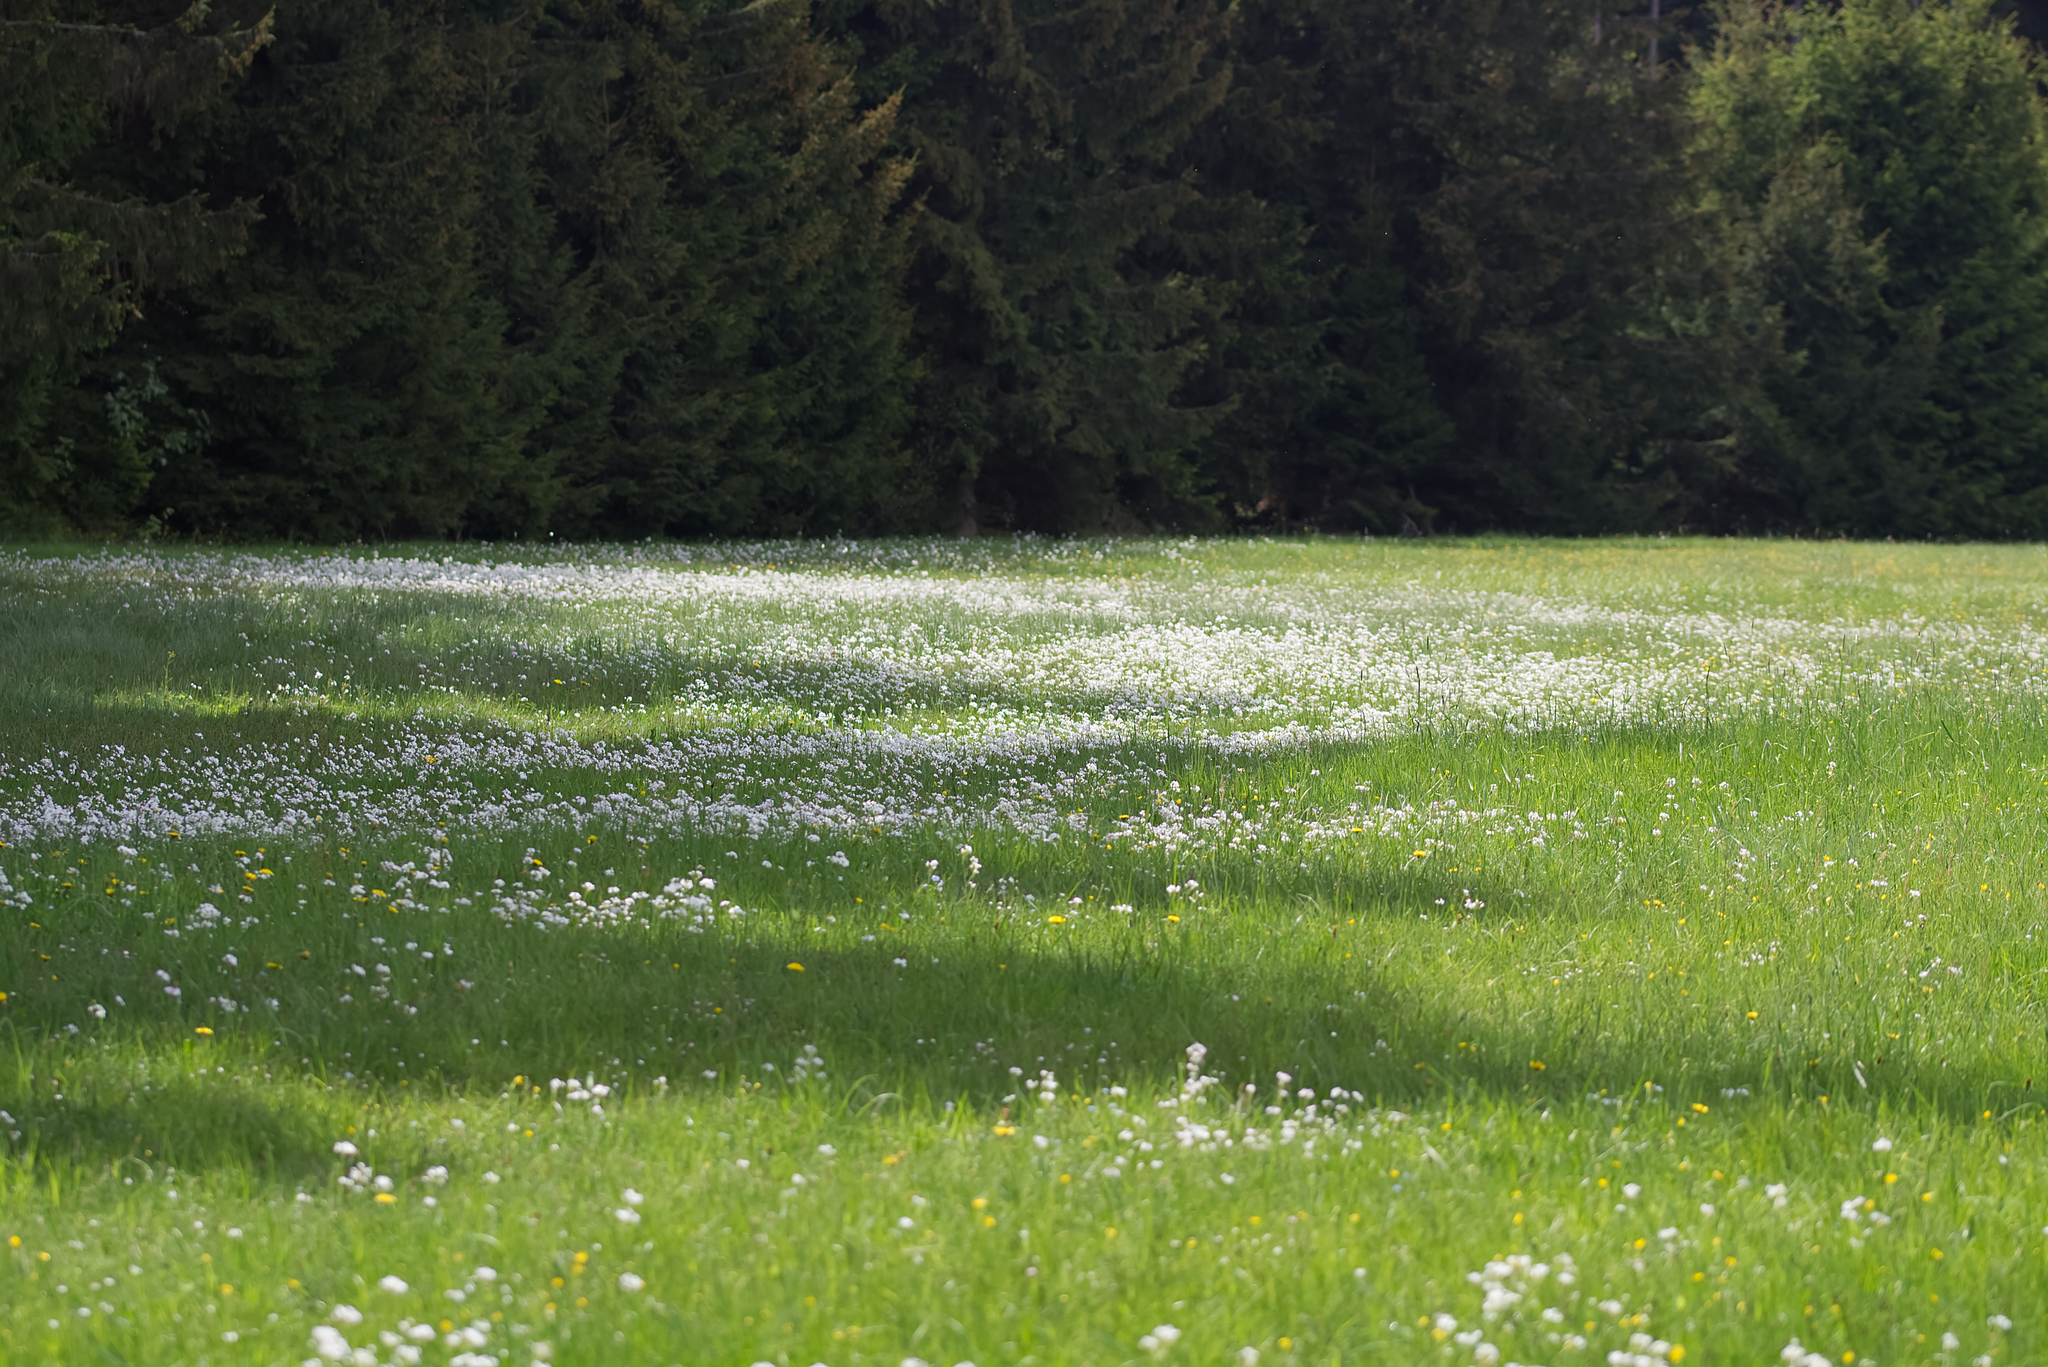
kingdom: Plantae
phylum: Tracheophyta
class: Magnoliopsida
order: Brassicales
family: Brassicaceae
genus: Cardamine
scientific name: Cardamine pratensis
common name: Cuckoo flower
